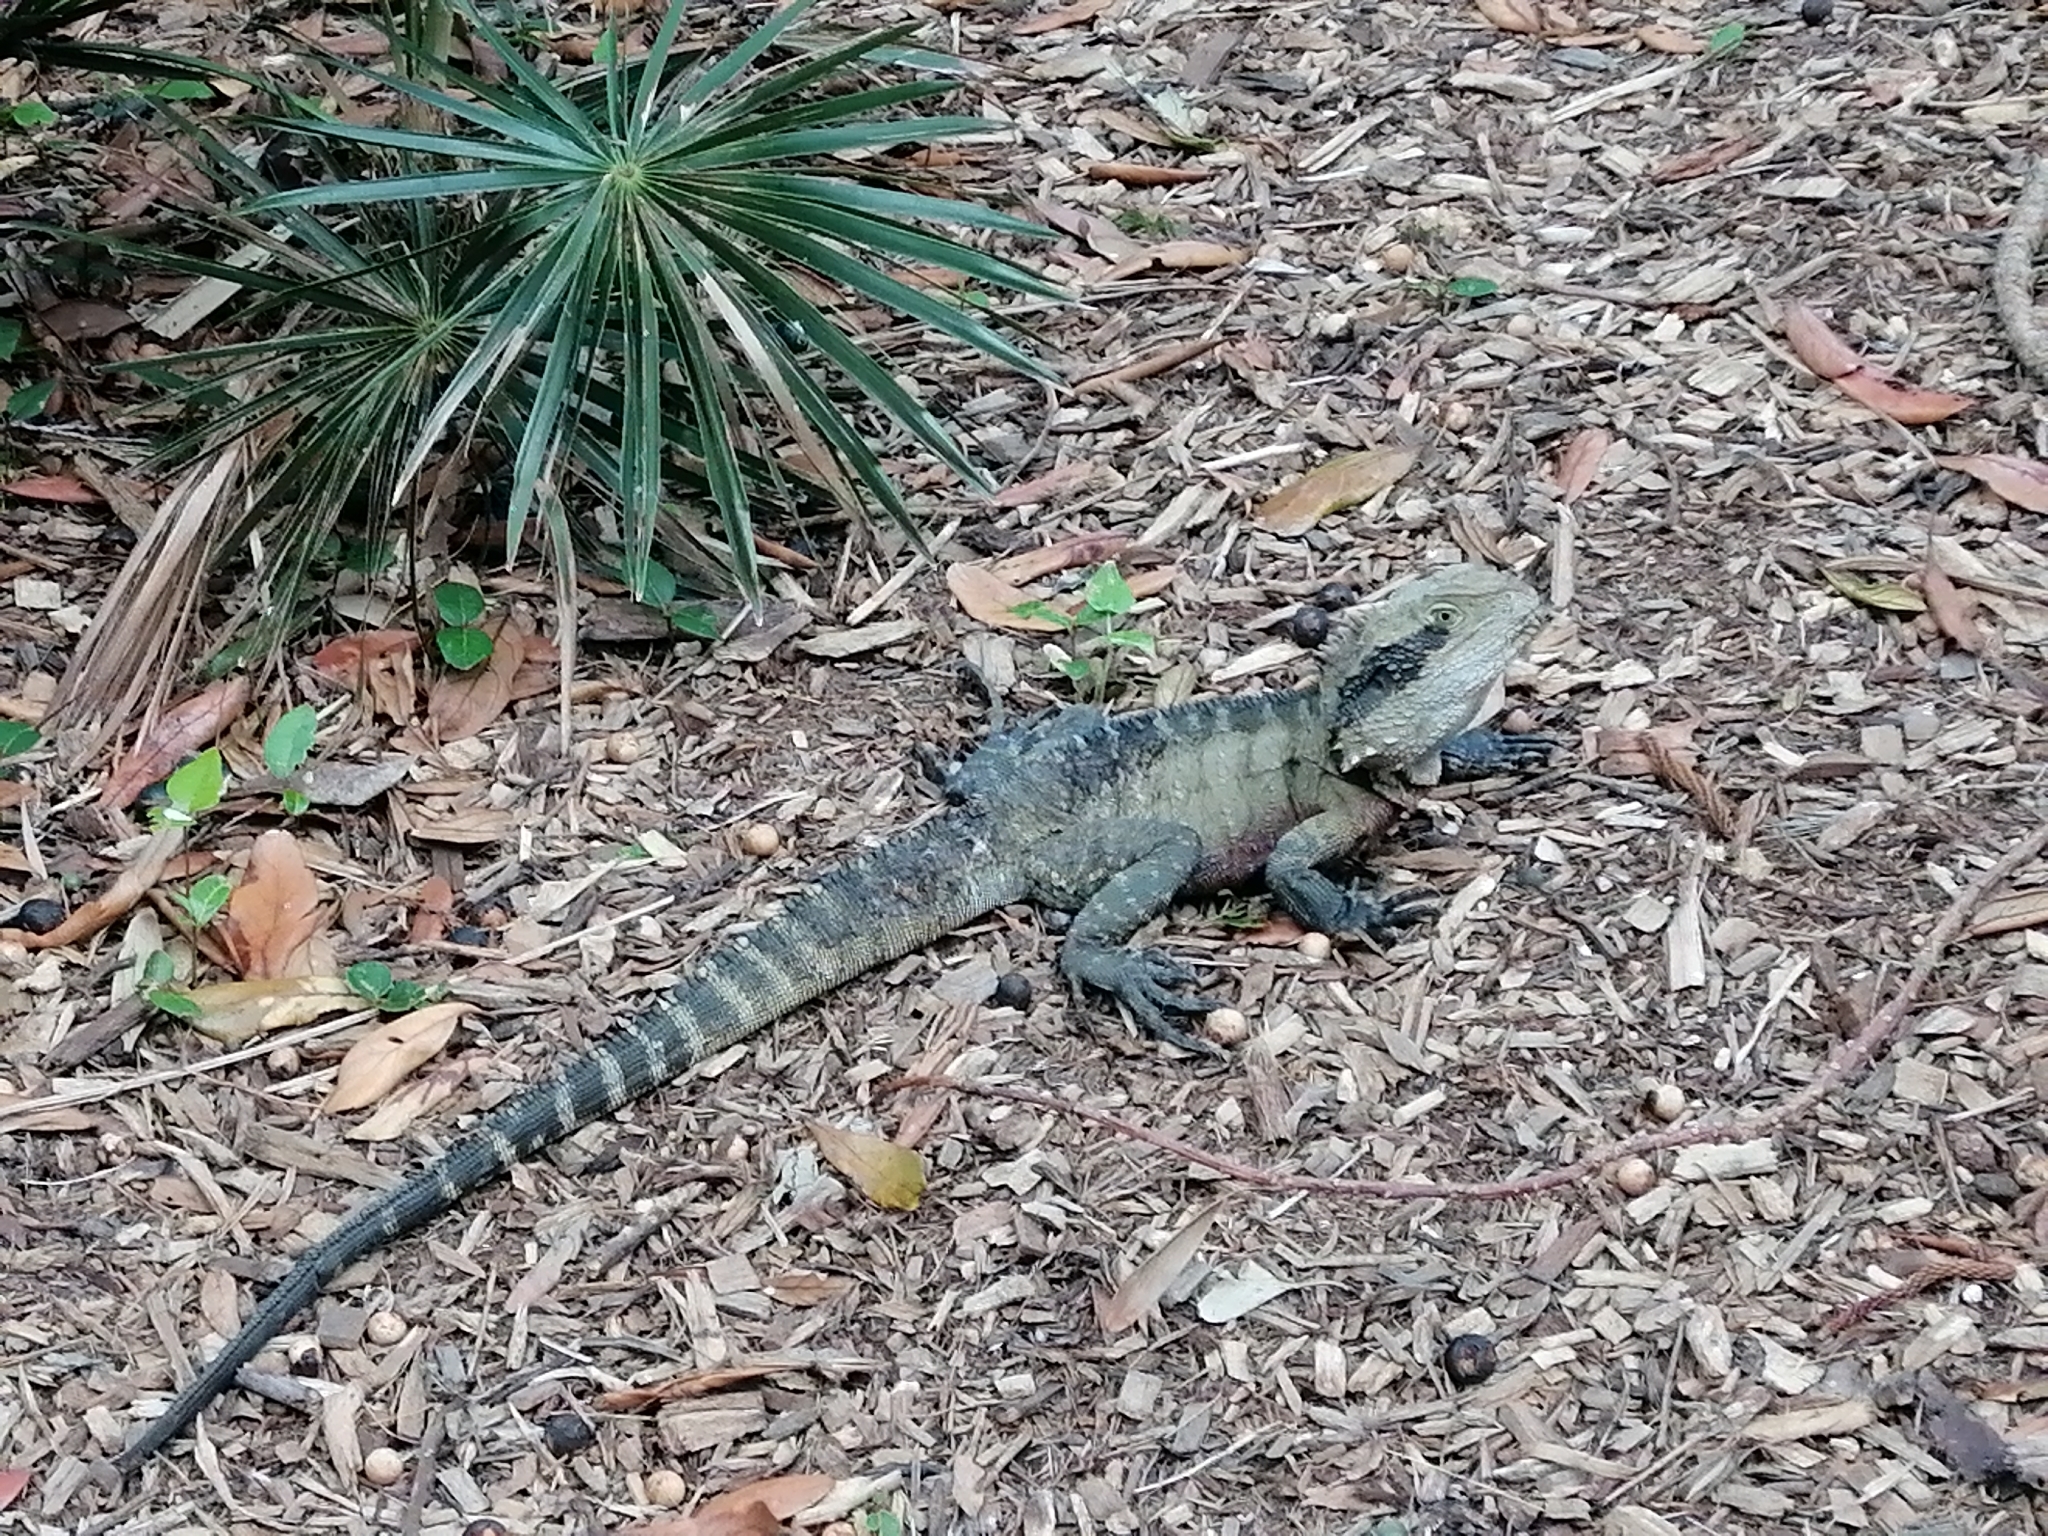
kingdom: Animalia
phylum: Chordata
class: Squamata
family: Agamidae
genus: Intellagama
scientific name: Intellagama lesueurii
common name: Eastern water dragon
